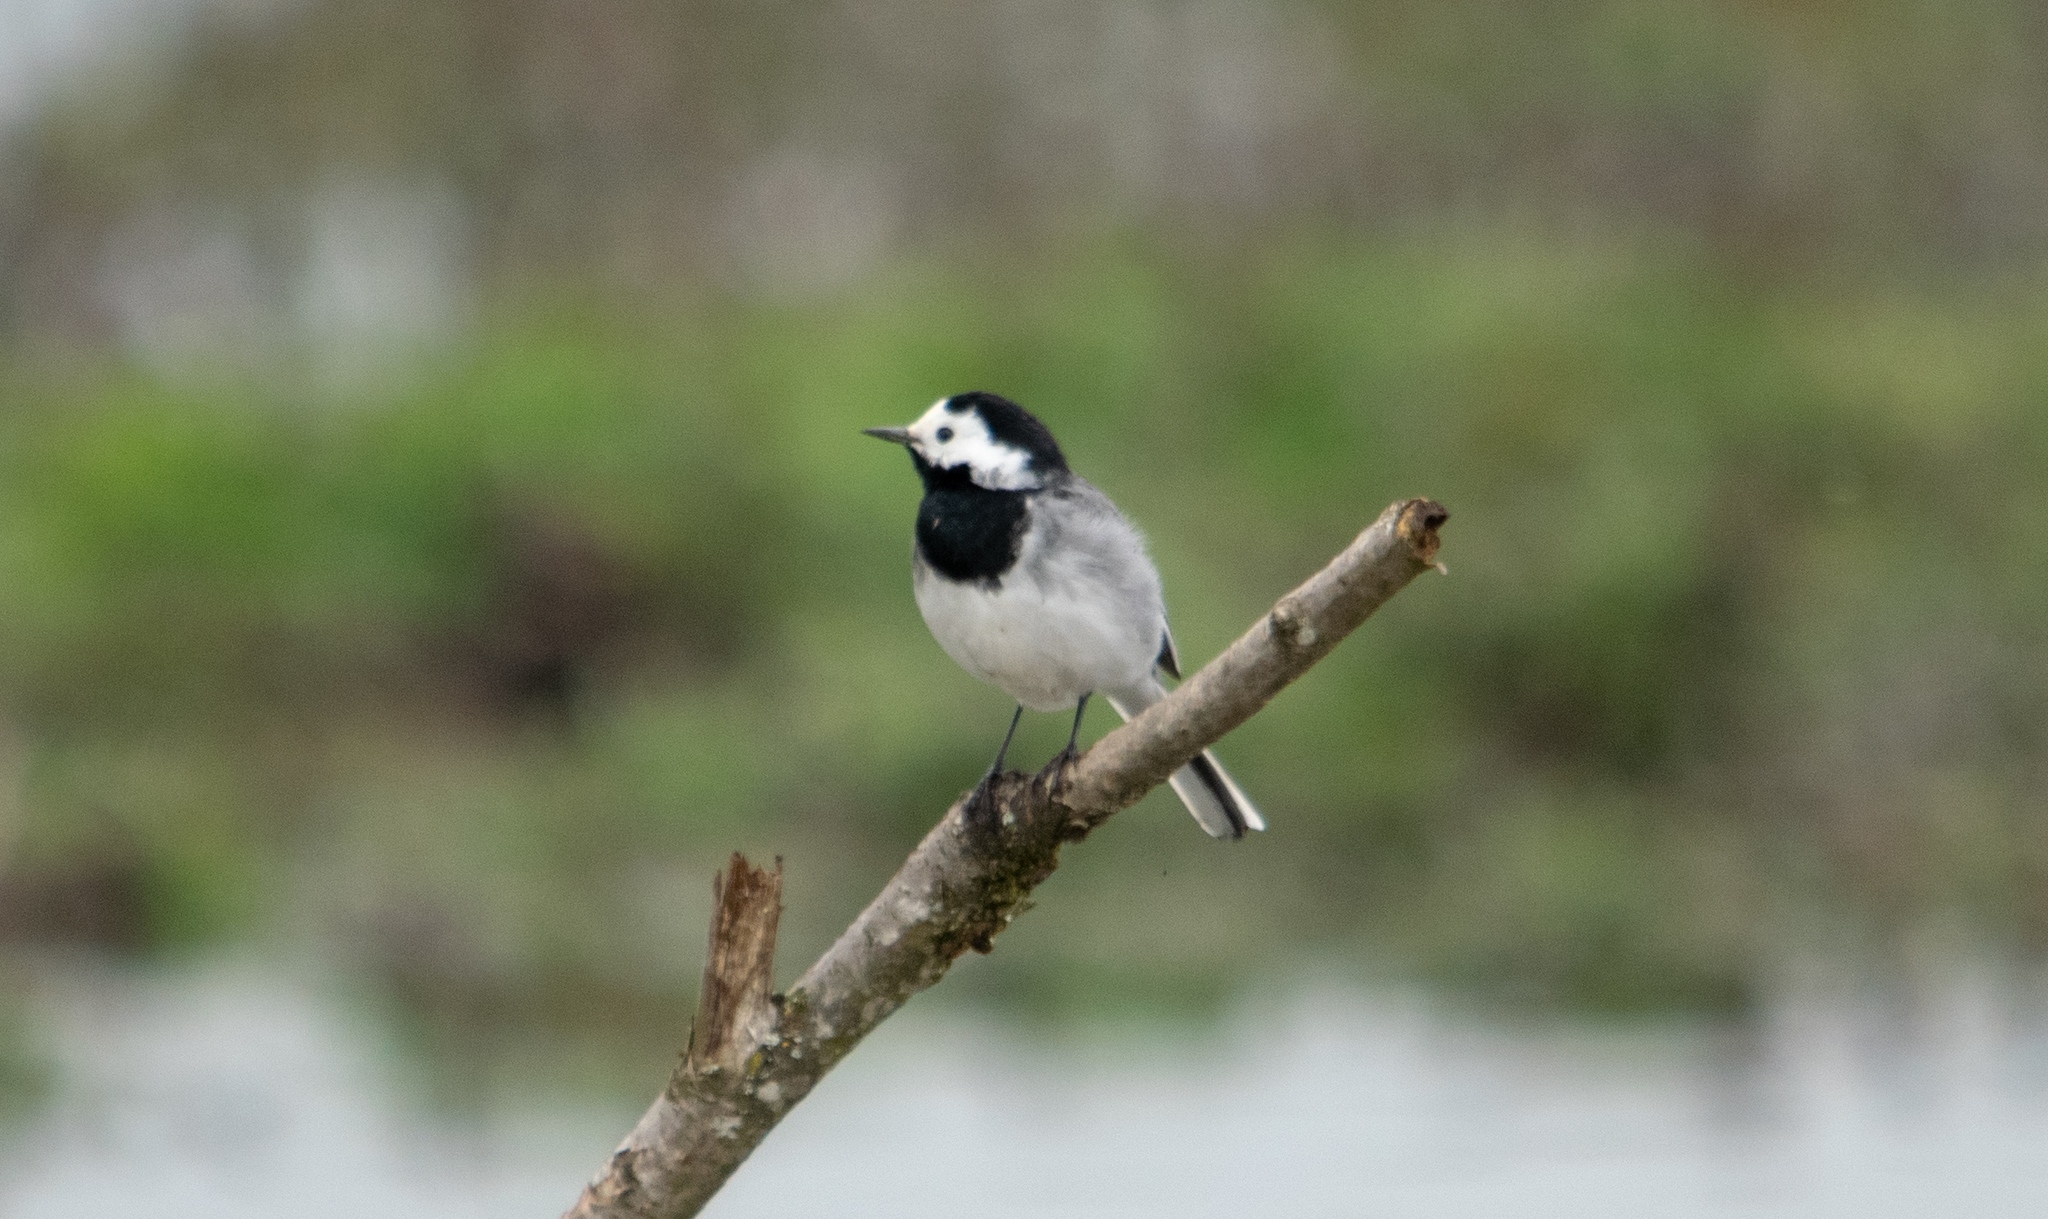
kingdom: Animalia
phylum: Chordata
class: Aves
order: Passeriformes
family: Motacillidae
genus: Motacilla
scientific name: Motacilla alba
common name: White wagtail
